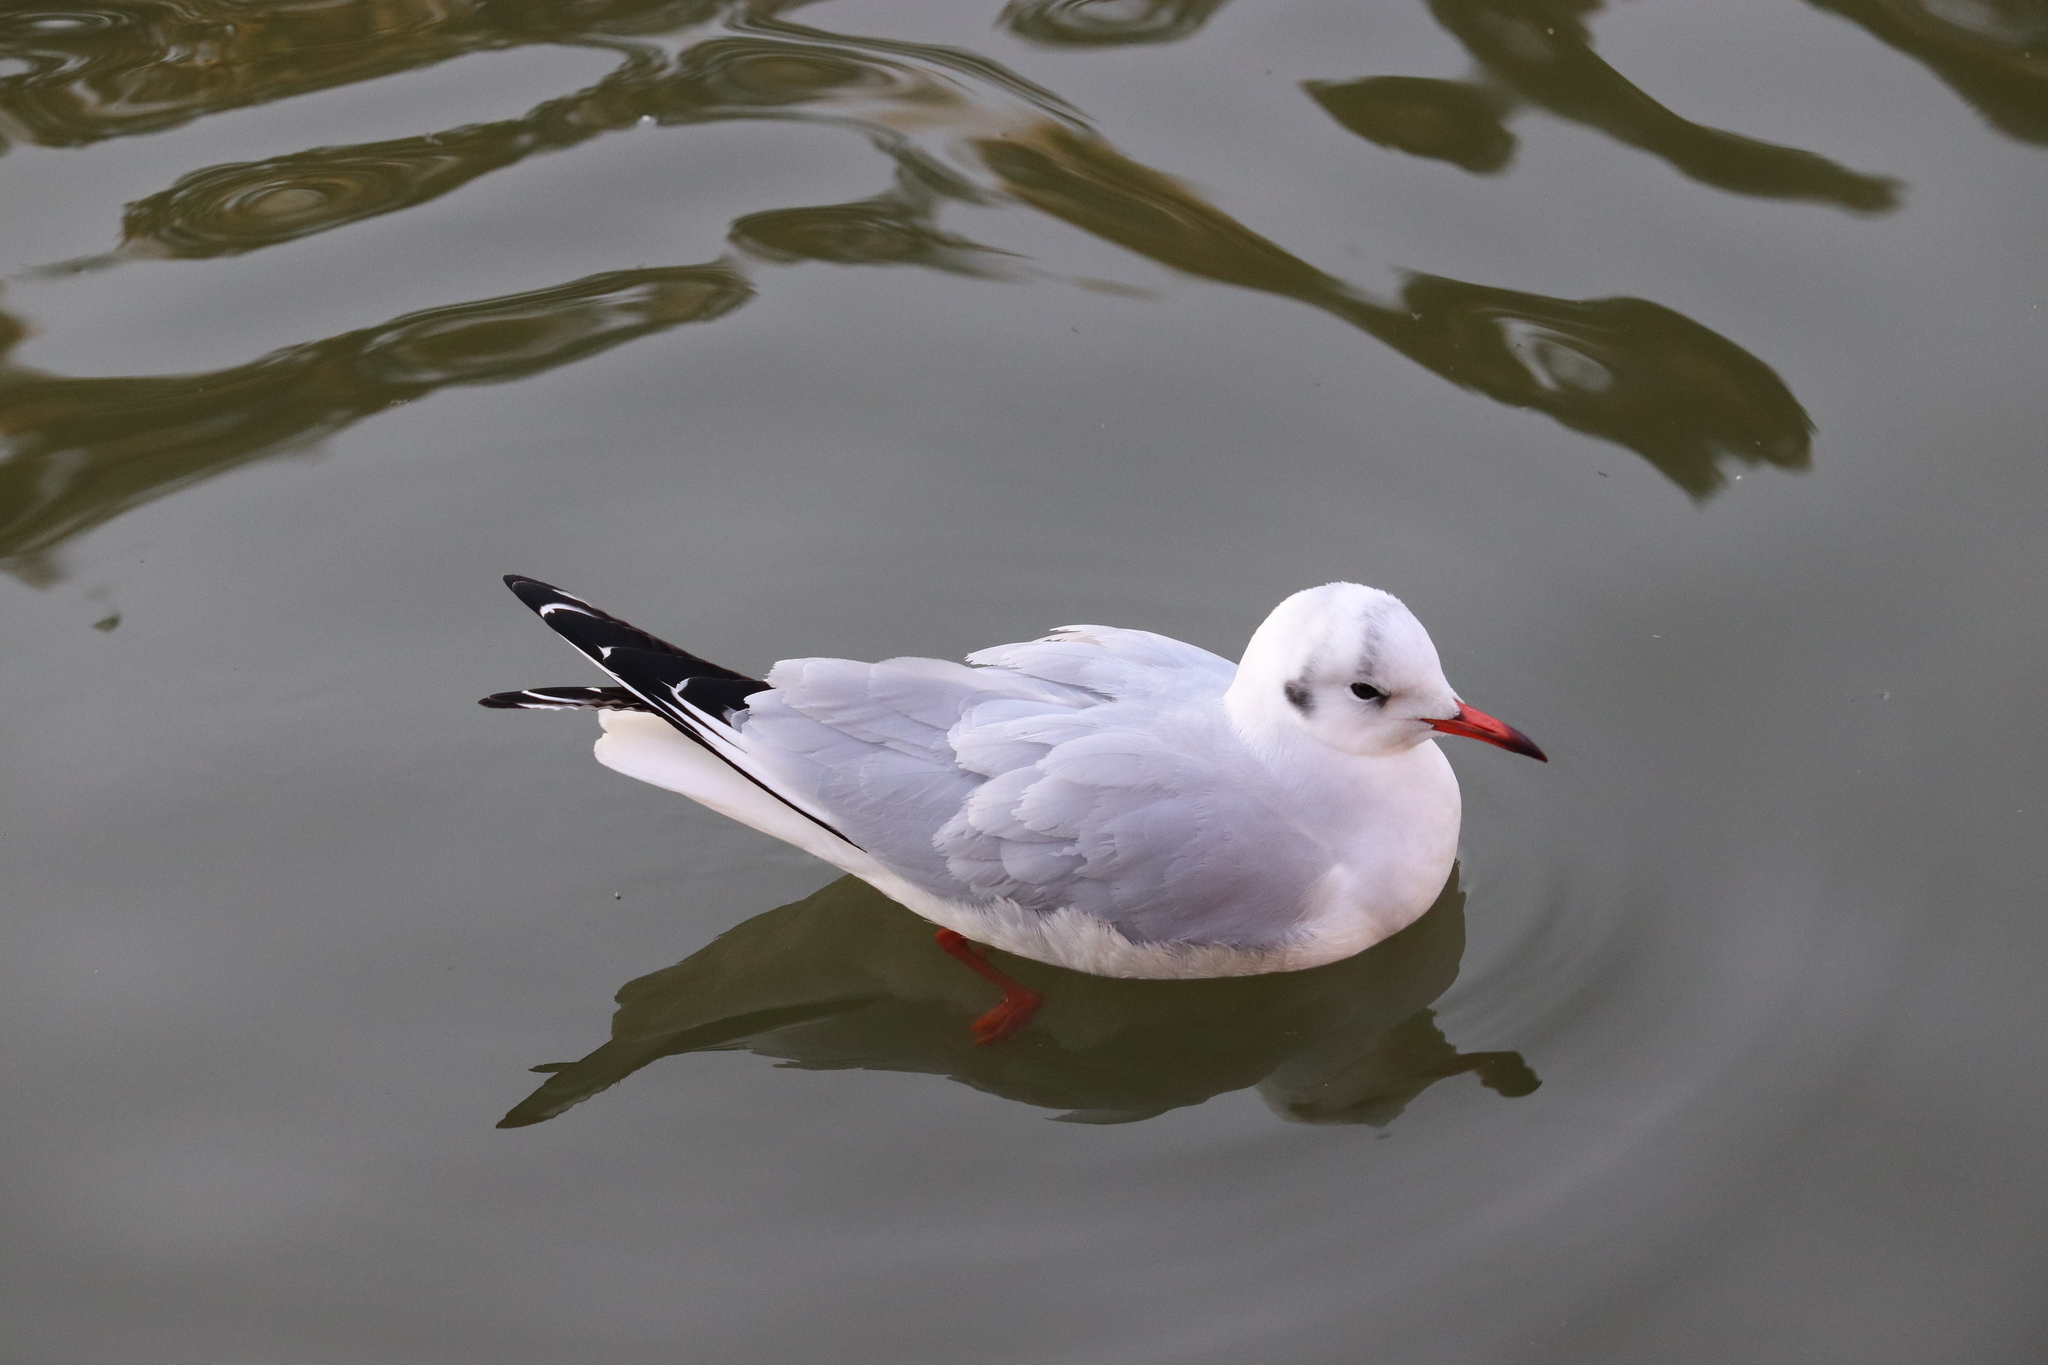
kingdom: Animalia
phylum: Chordata
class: Aves
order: Charadriiformes
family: Laridae
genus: Chroicocephalus
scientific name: Chroicocephalus ridibundus
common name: Black-headed gull
